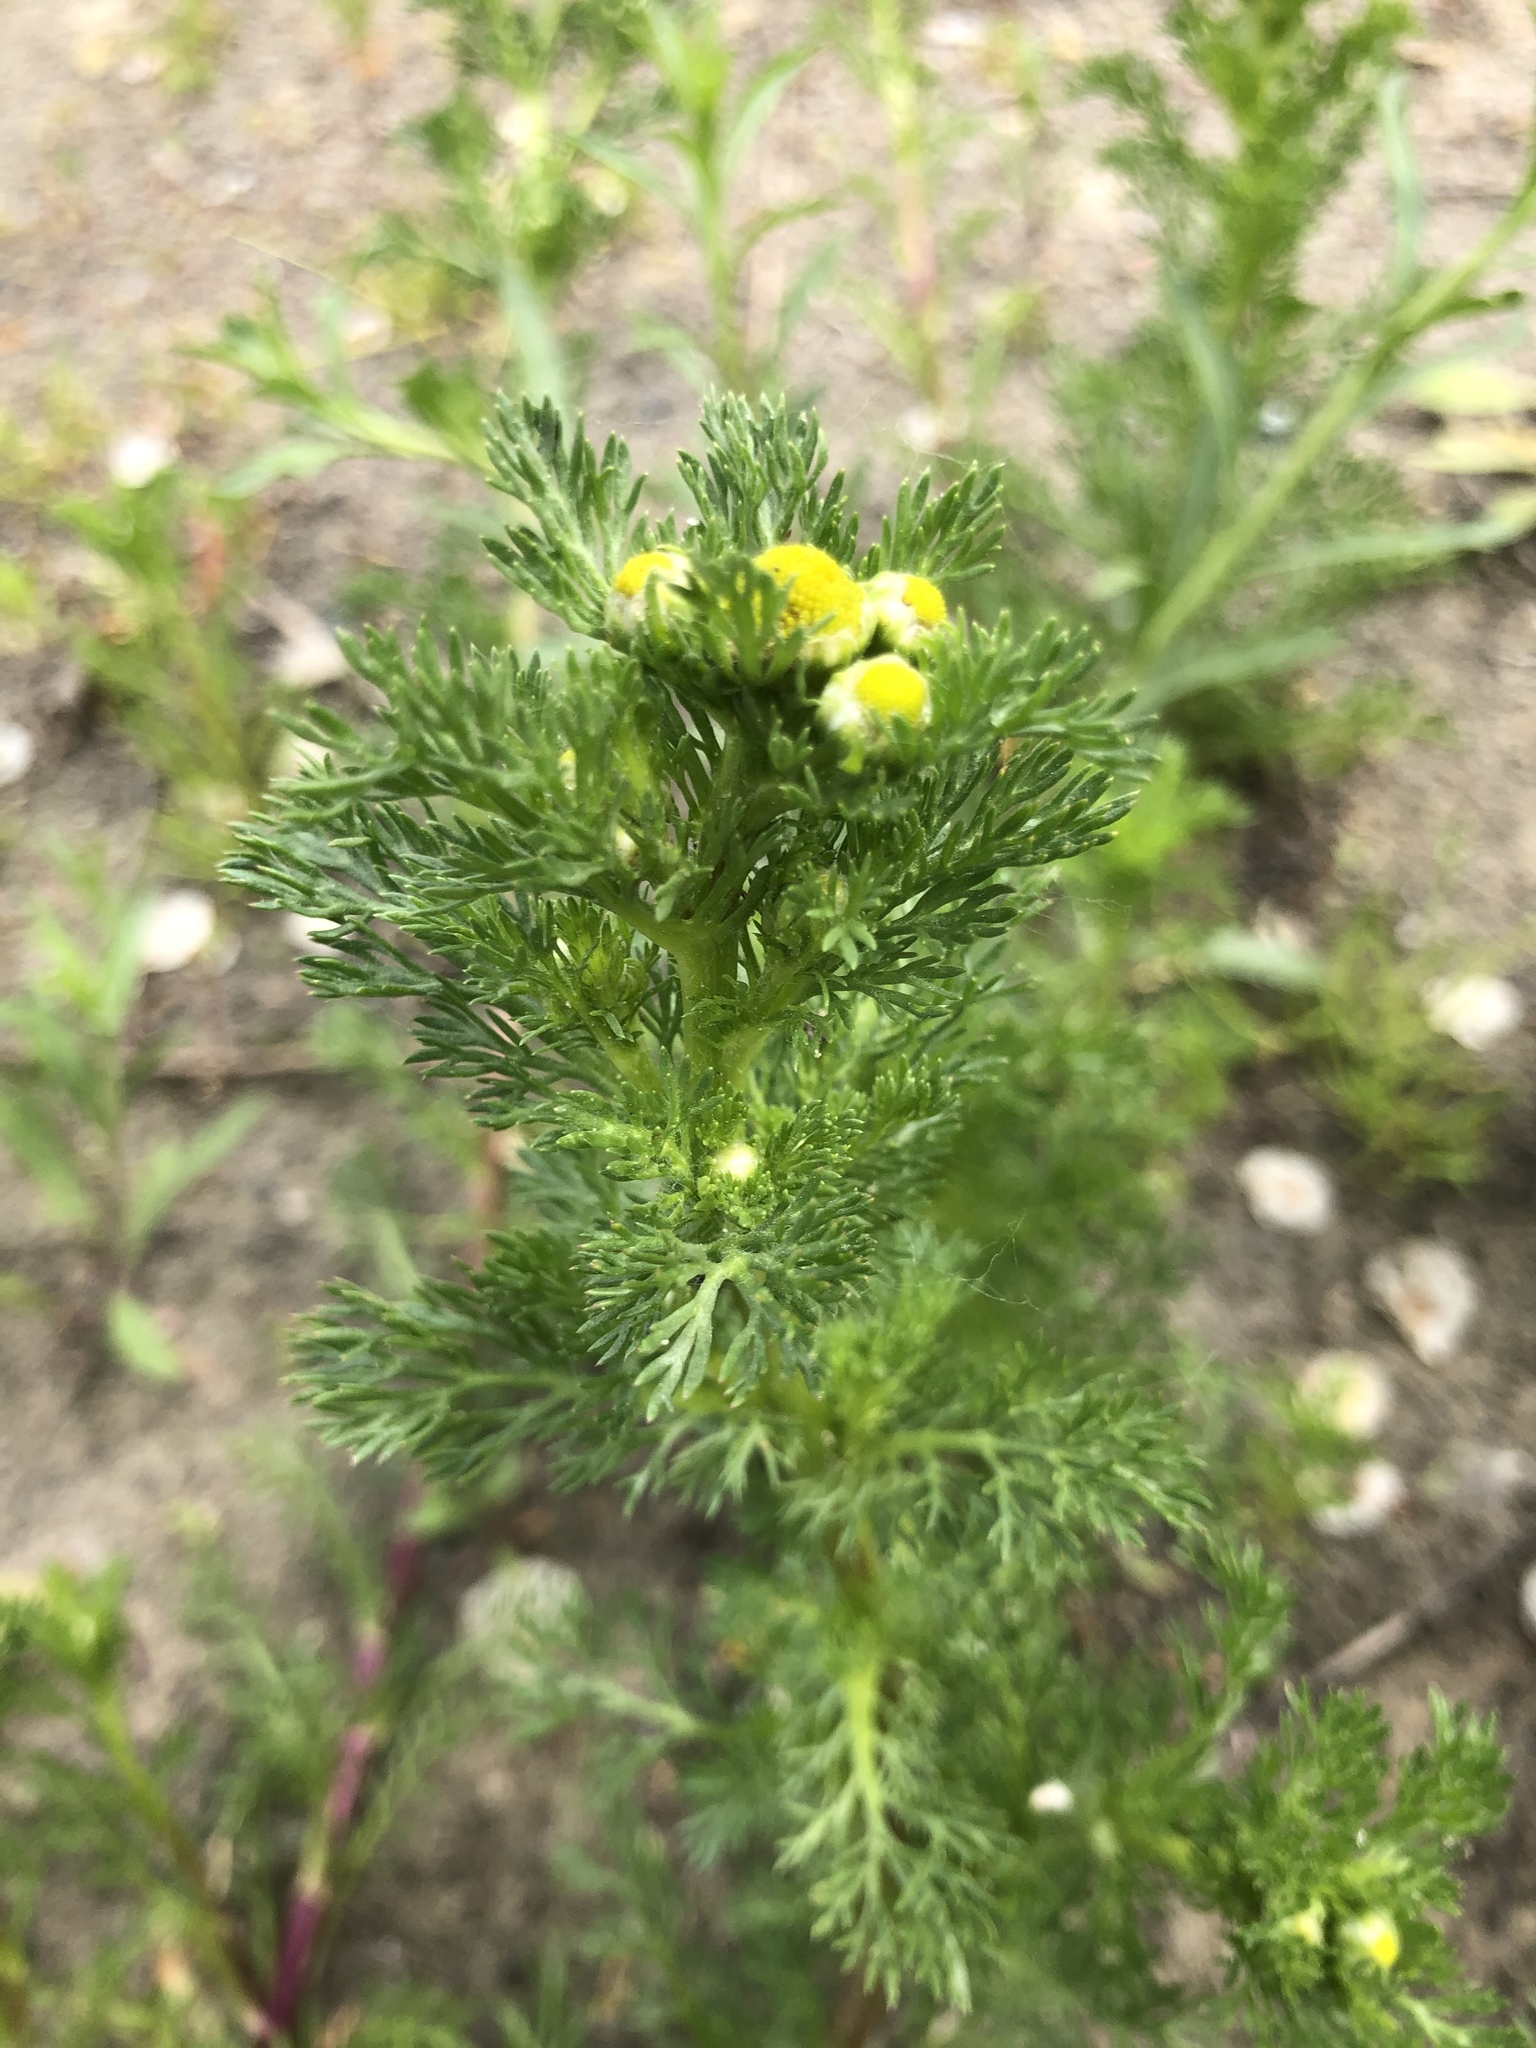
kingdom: Plantae
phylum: Tracheophyta
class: Magnoliopsida
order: Asterales
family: Asteraceae
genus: Matricaria
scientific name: Matricaria discoidea
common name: Disc mayweed
